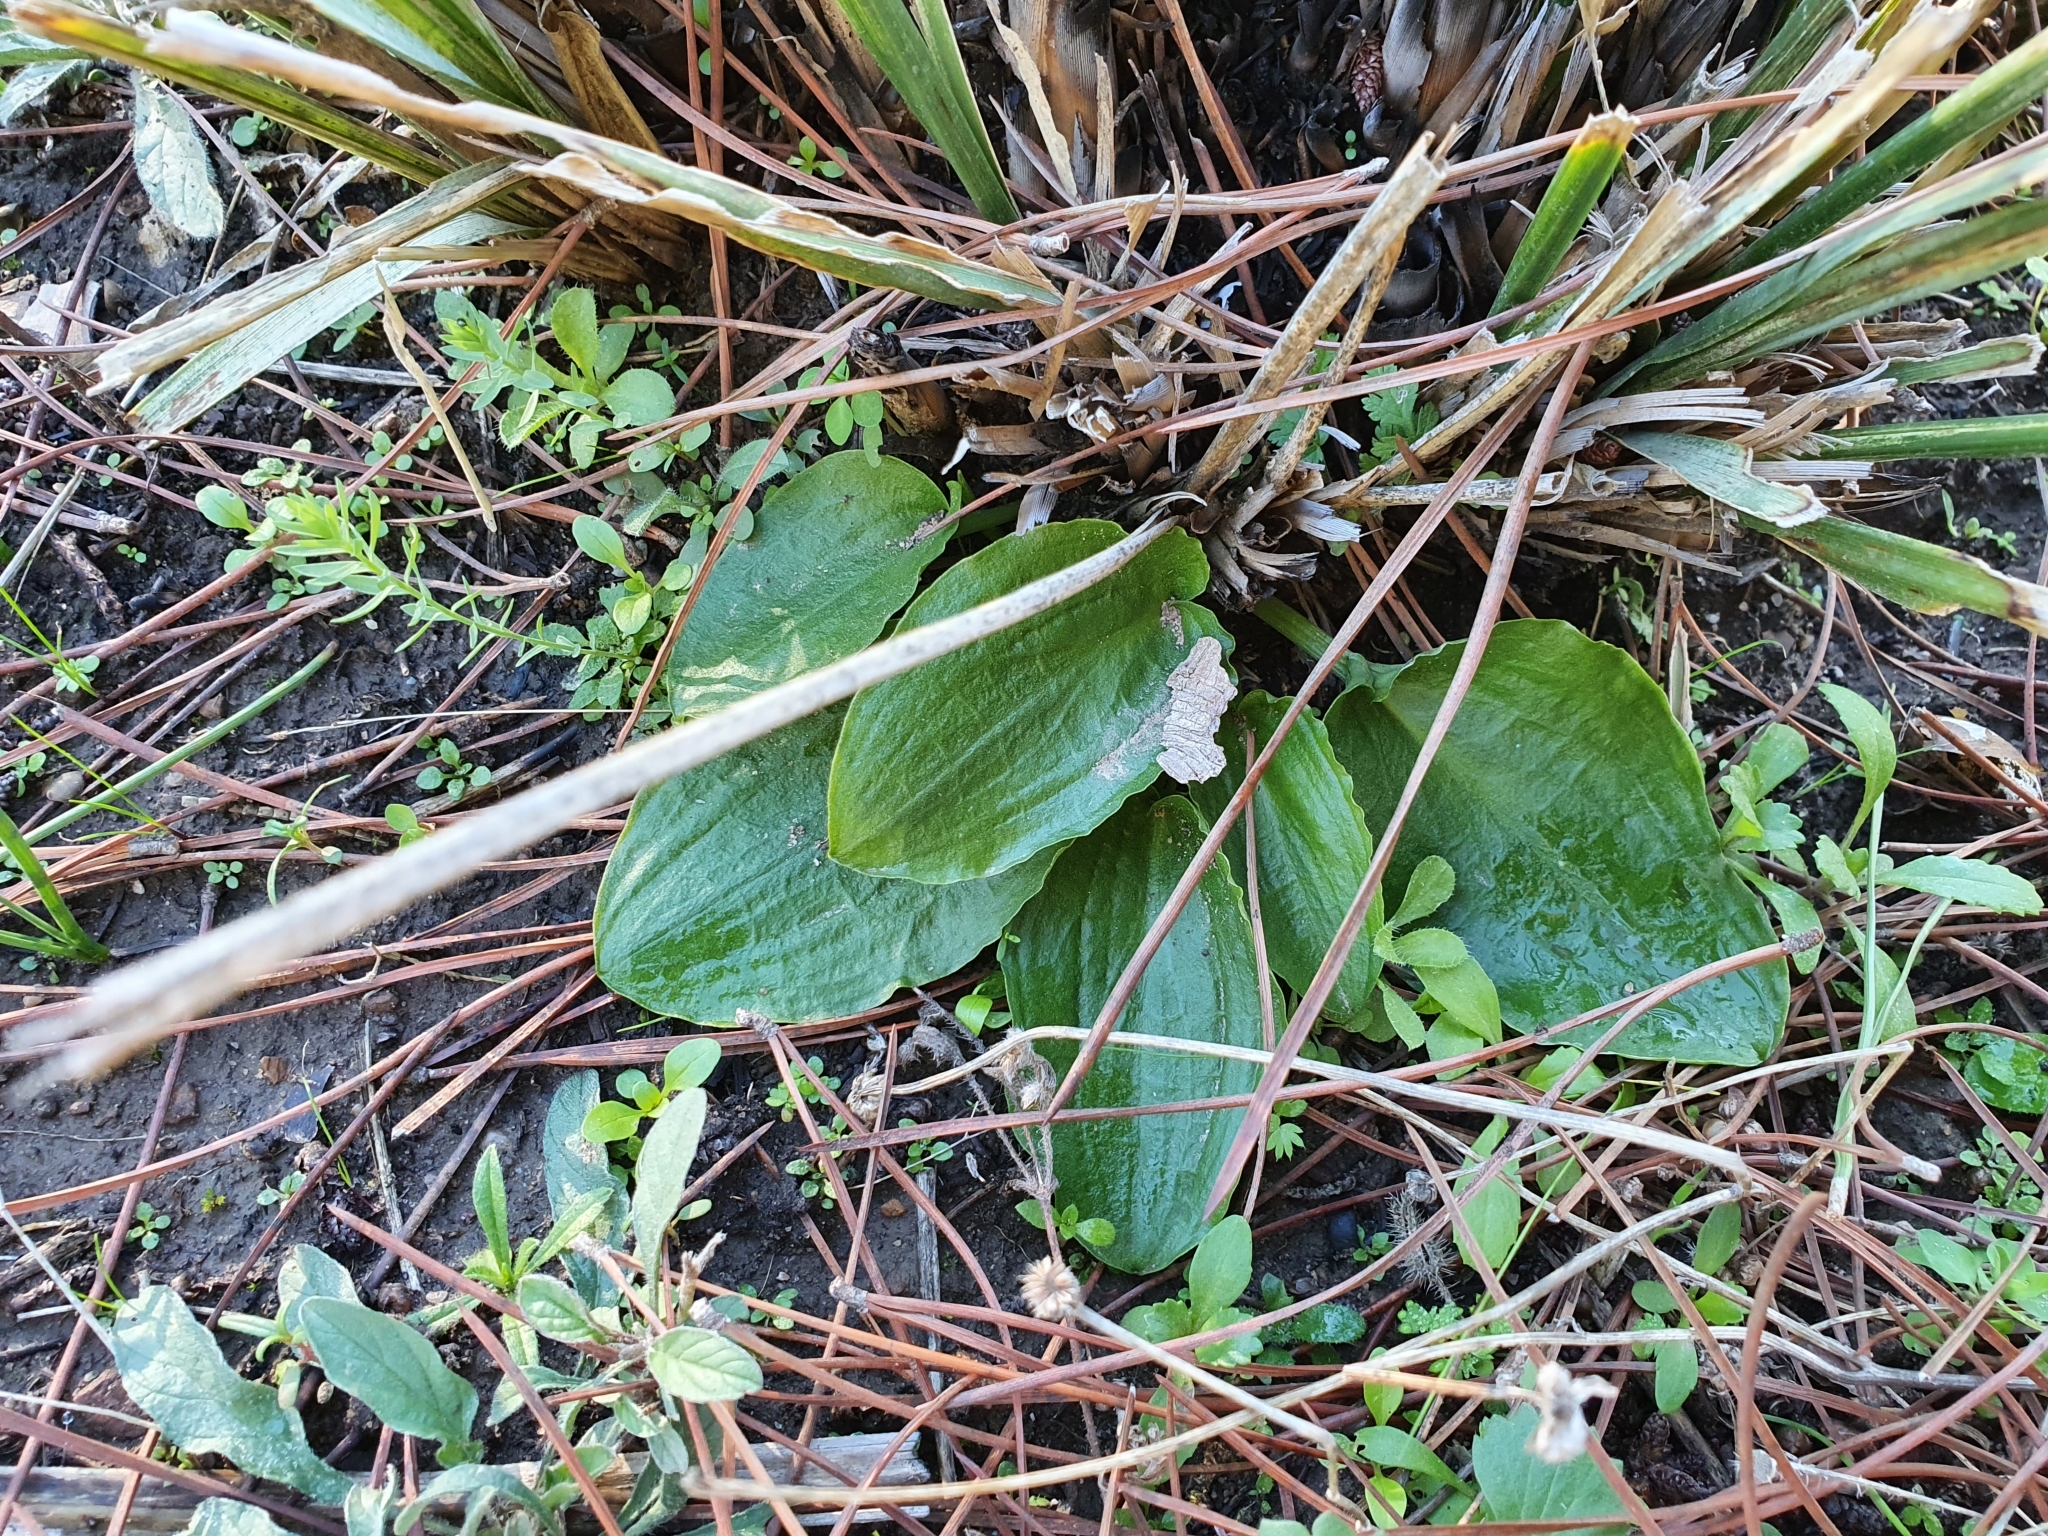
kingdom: Plantae
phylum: Tracheophyta
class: Liliopsida
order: Alismatales
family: Araceae
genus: Ambrosina
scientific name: Ambrosina bassii
